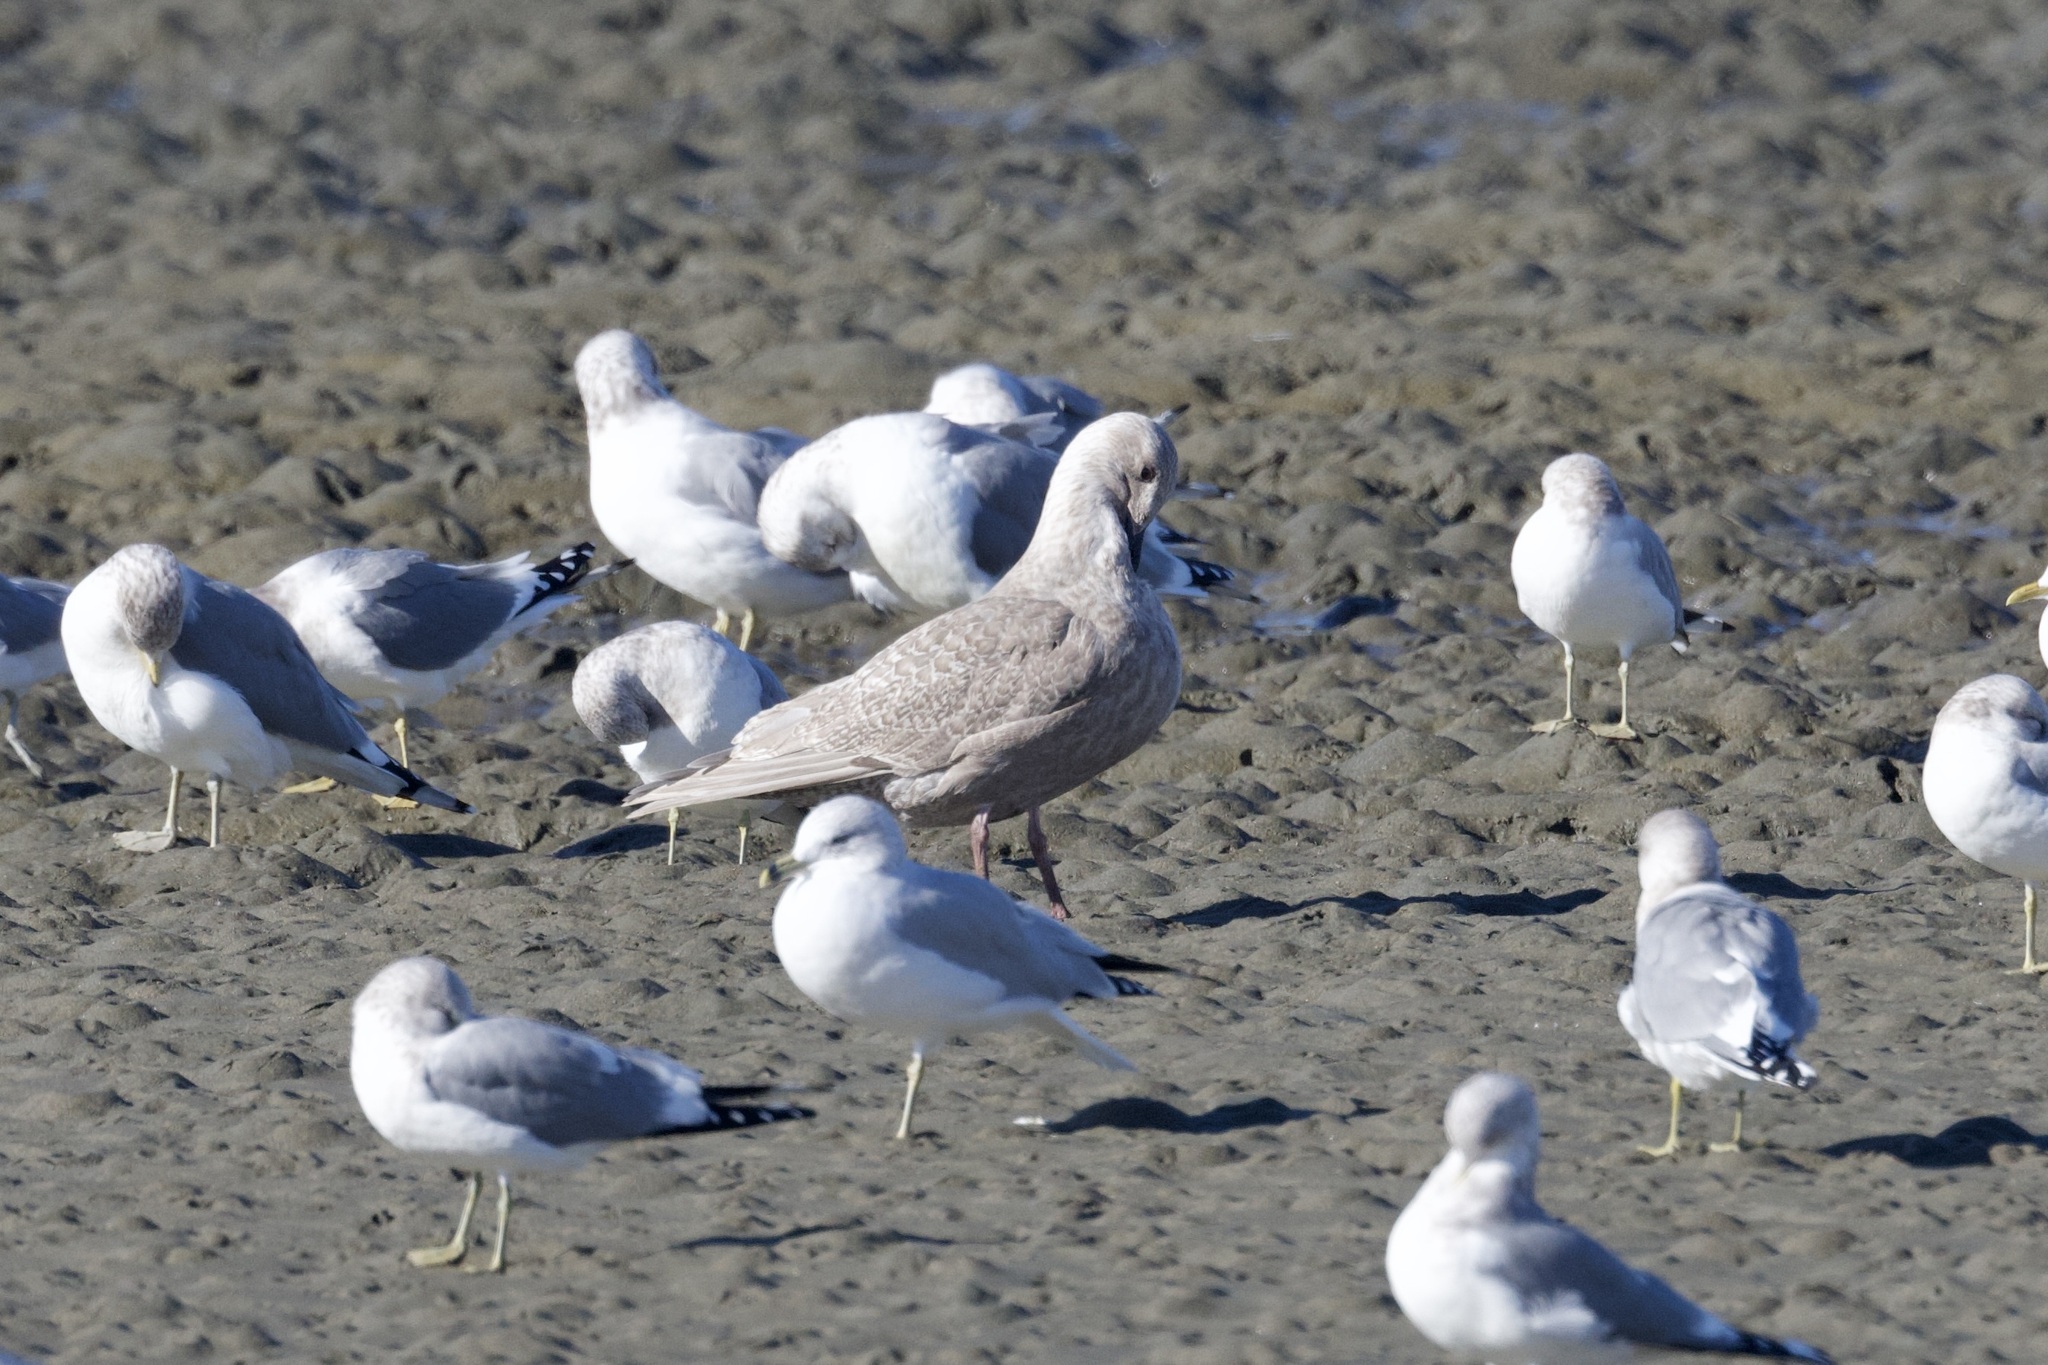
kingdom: Animalia
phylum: Chordata
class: Aves
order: Charadriiformes
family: Laridae
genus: Larus
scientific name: Larus glaucescens
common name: Glaucous-winged gull
